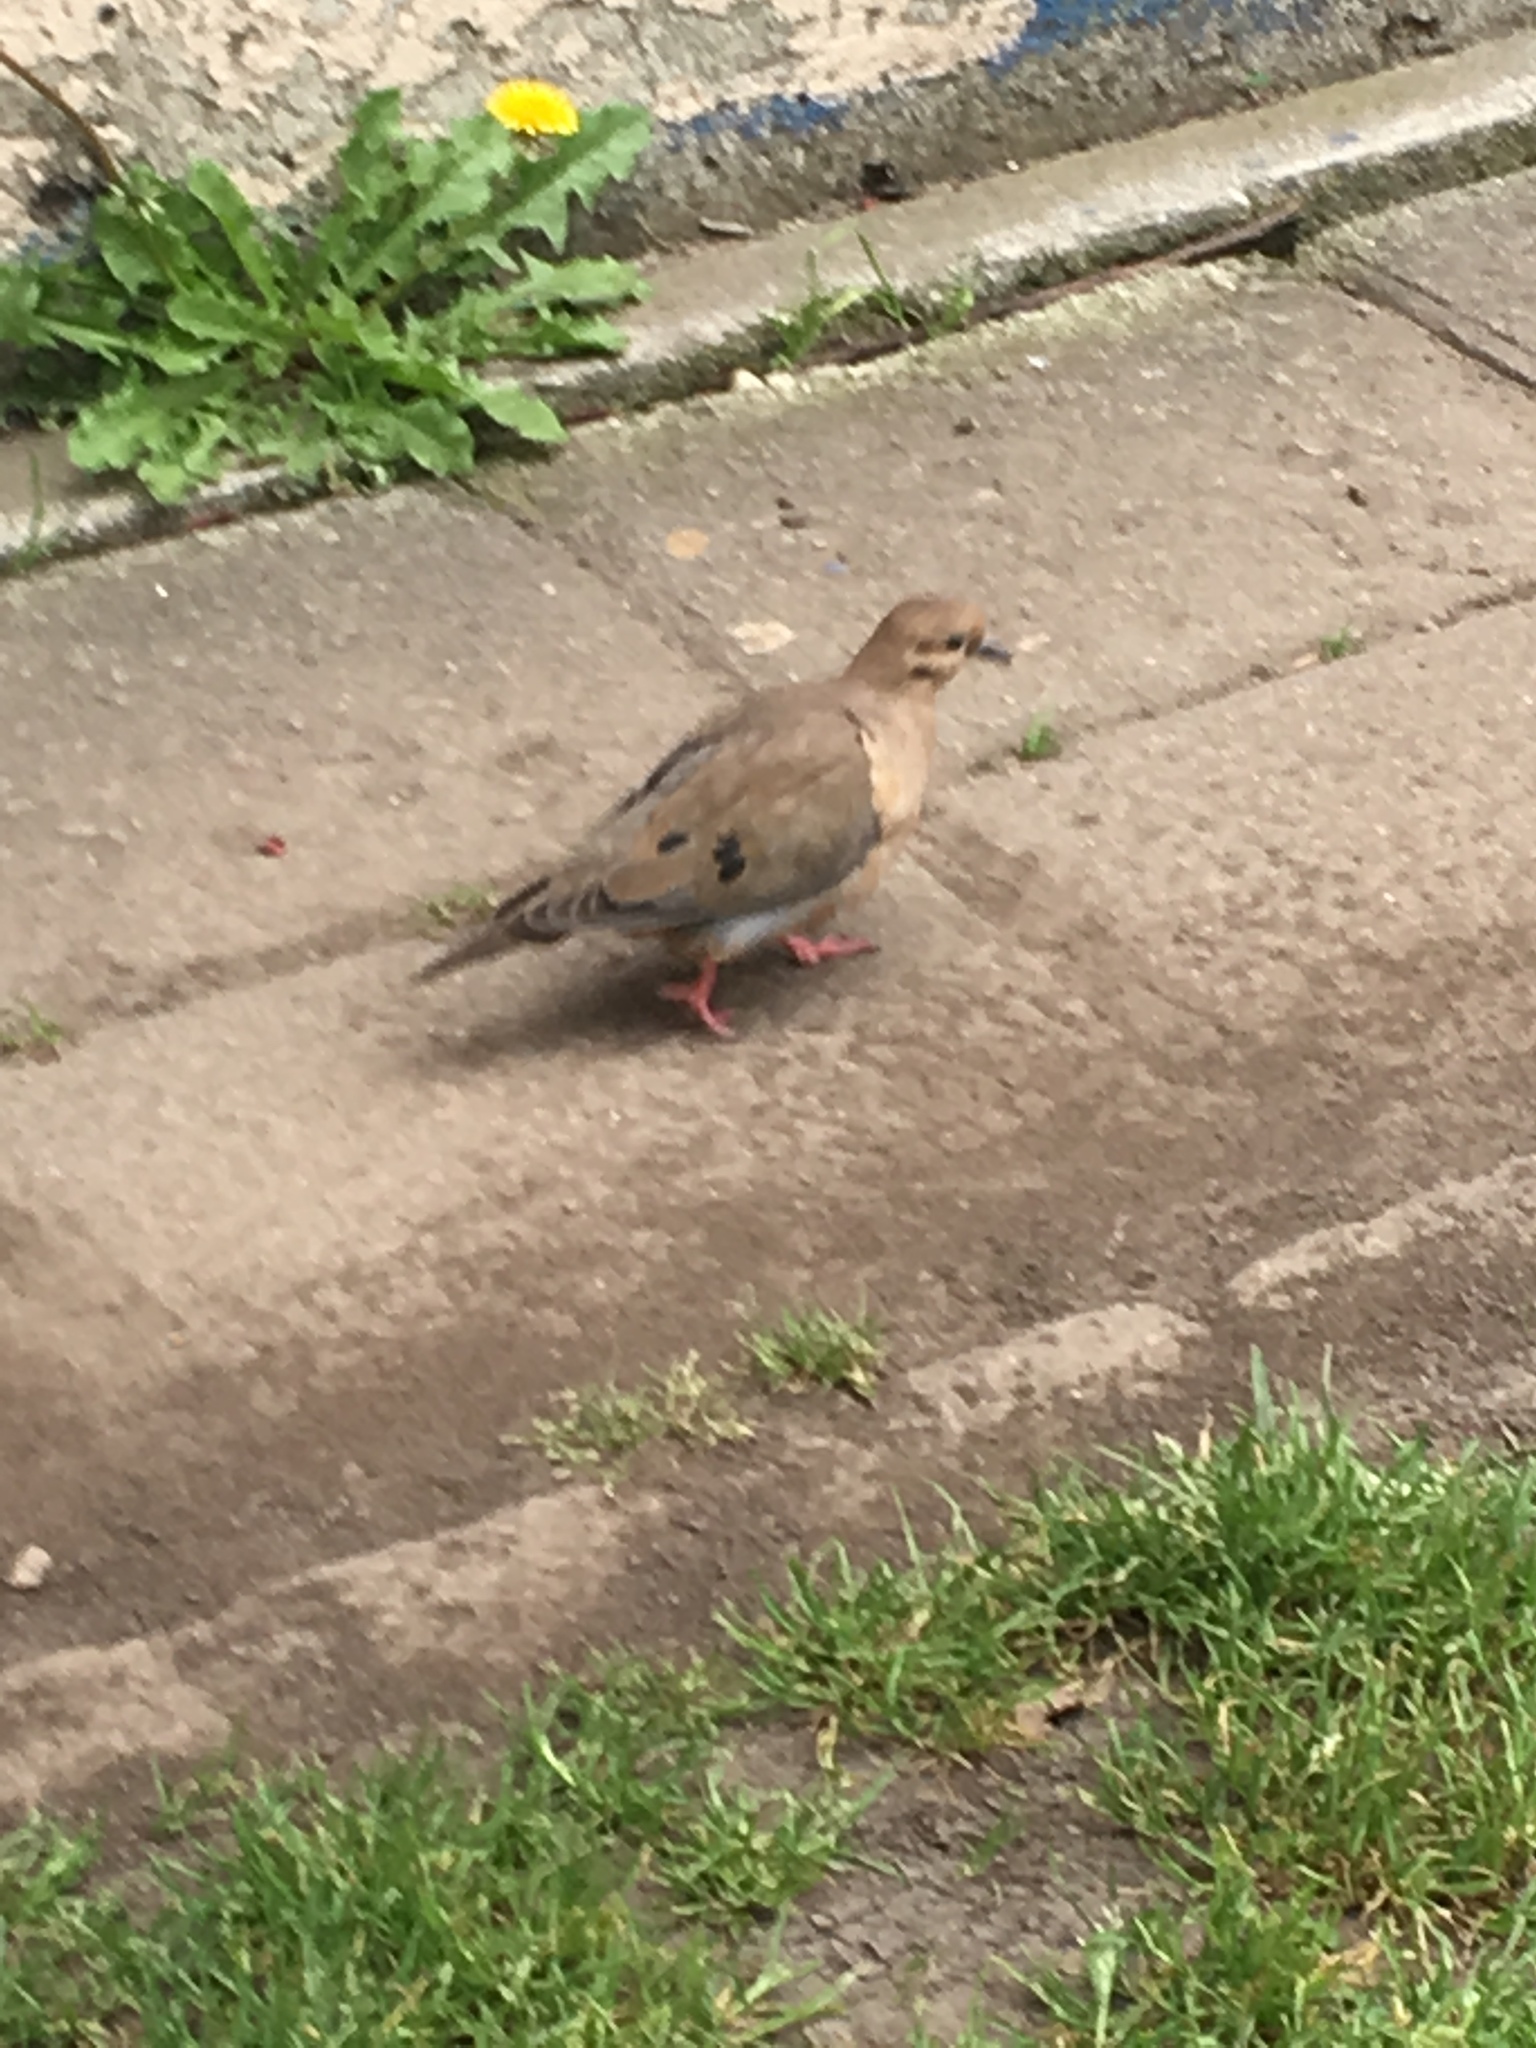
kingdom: Animalia
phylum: Chordata
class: Aves
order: Columbiformes
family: Columbidae
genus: Zenaida
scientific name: Zenaida auriculata
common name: Eared dove
